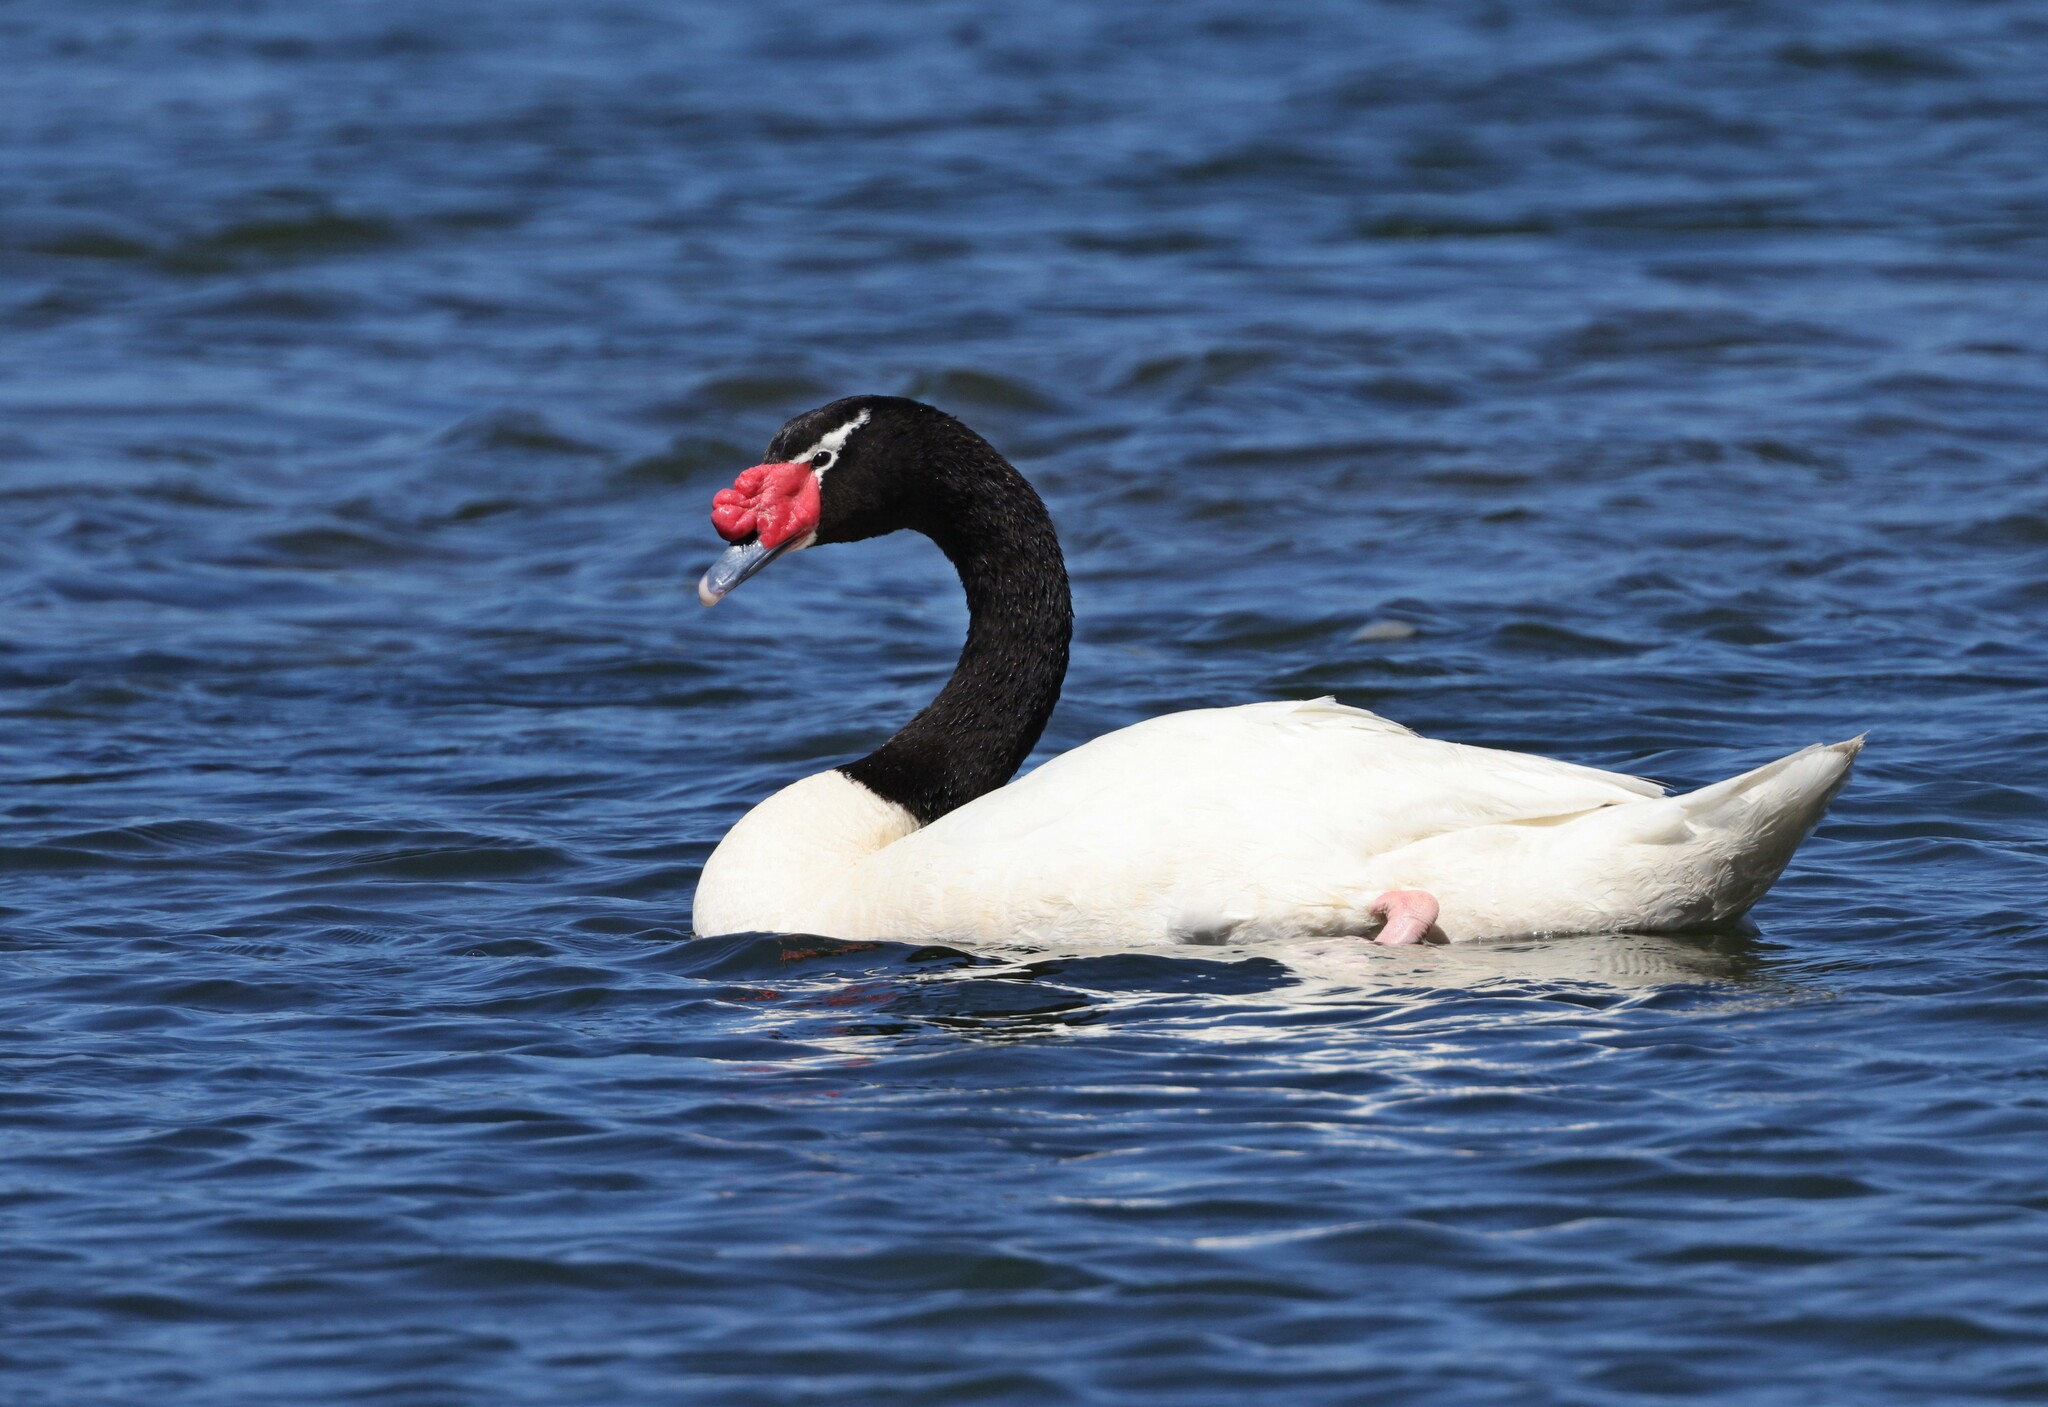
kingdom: Animalia
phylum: Chordata
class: Aves
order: Anseriformes
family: Anatidae
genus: Cygnus
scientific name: Cygnus melancoryphus
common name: Black-necked swan
